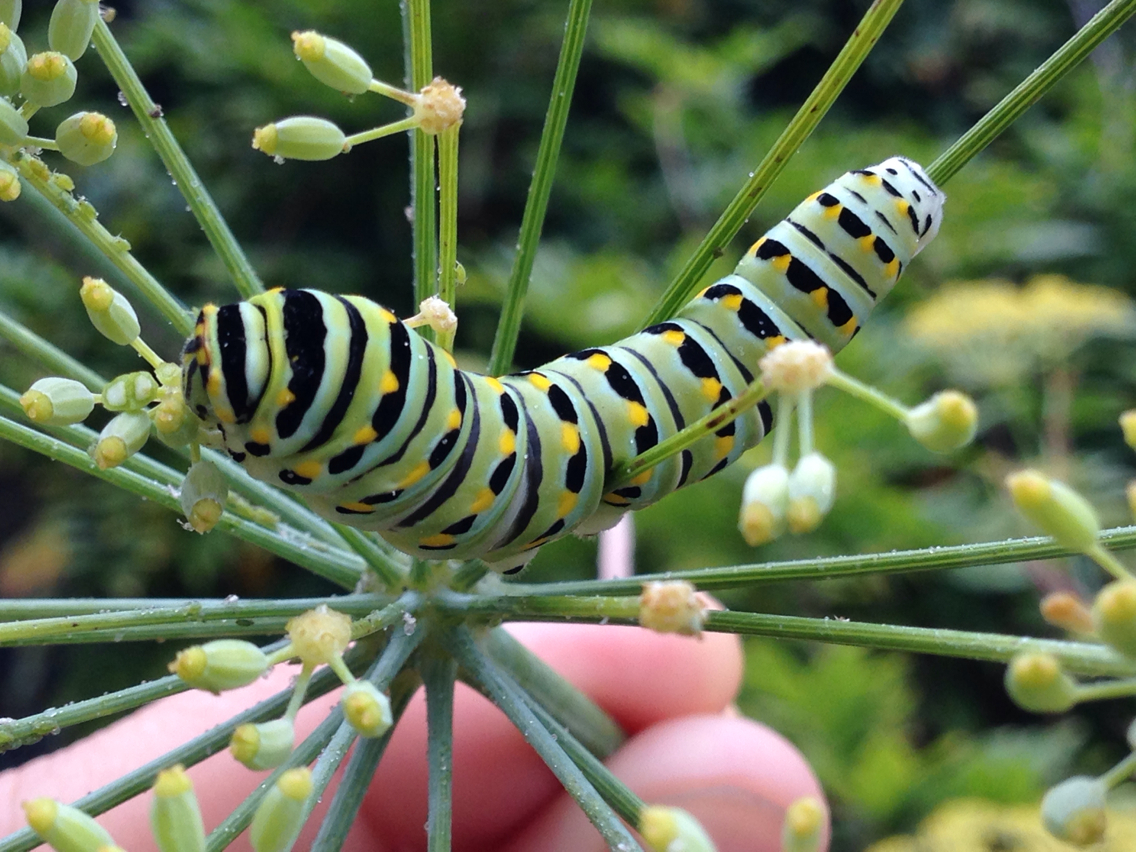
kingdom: Animalia
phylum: Arthropoda
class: Insecta
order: Lepidoptera
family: Papilionidae
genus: Papilio
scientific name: Papilio zelicaon
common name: Anise swallowtail
